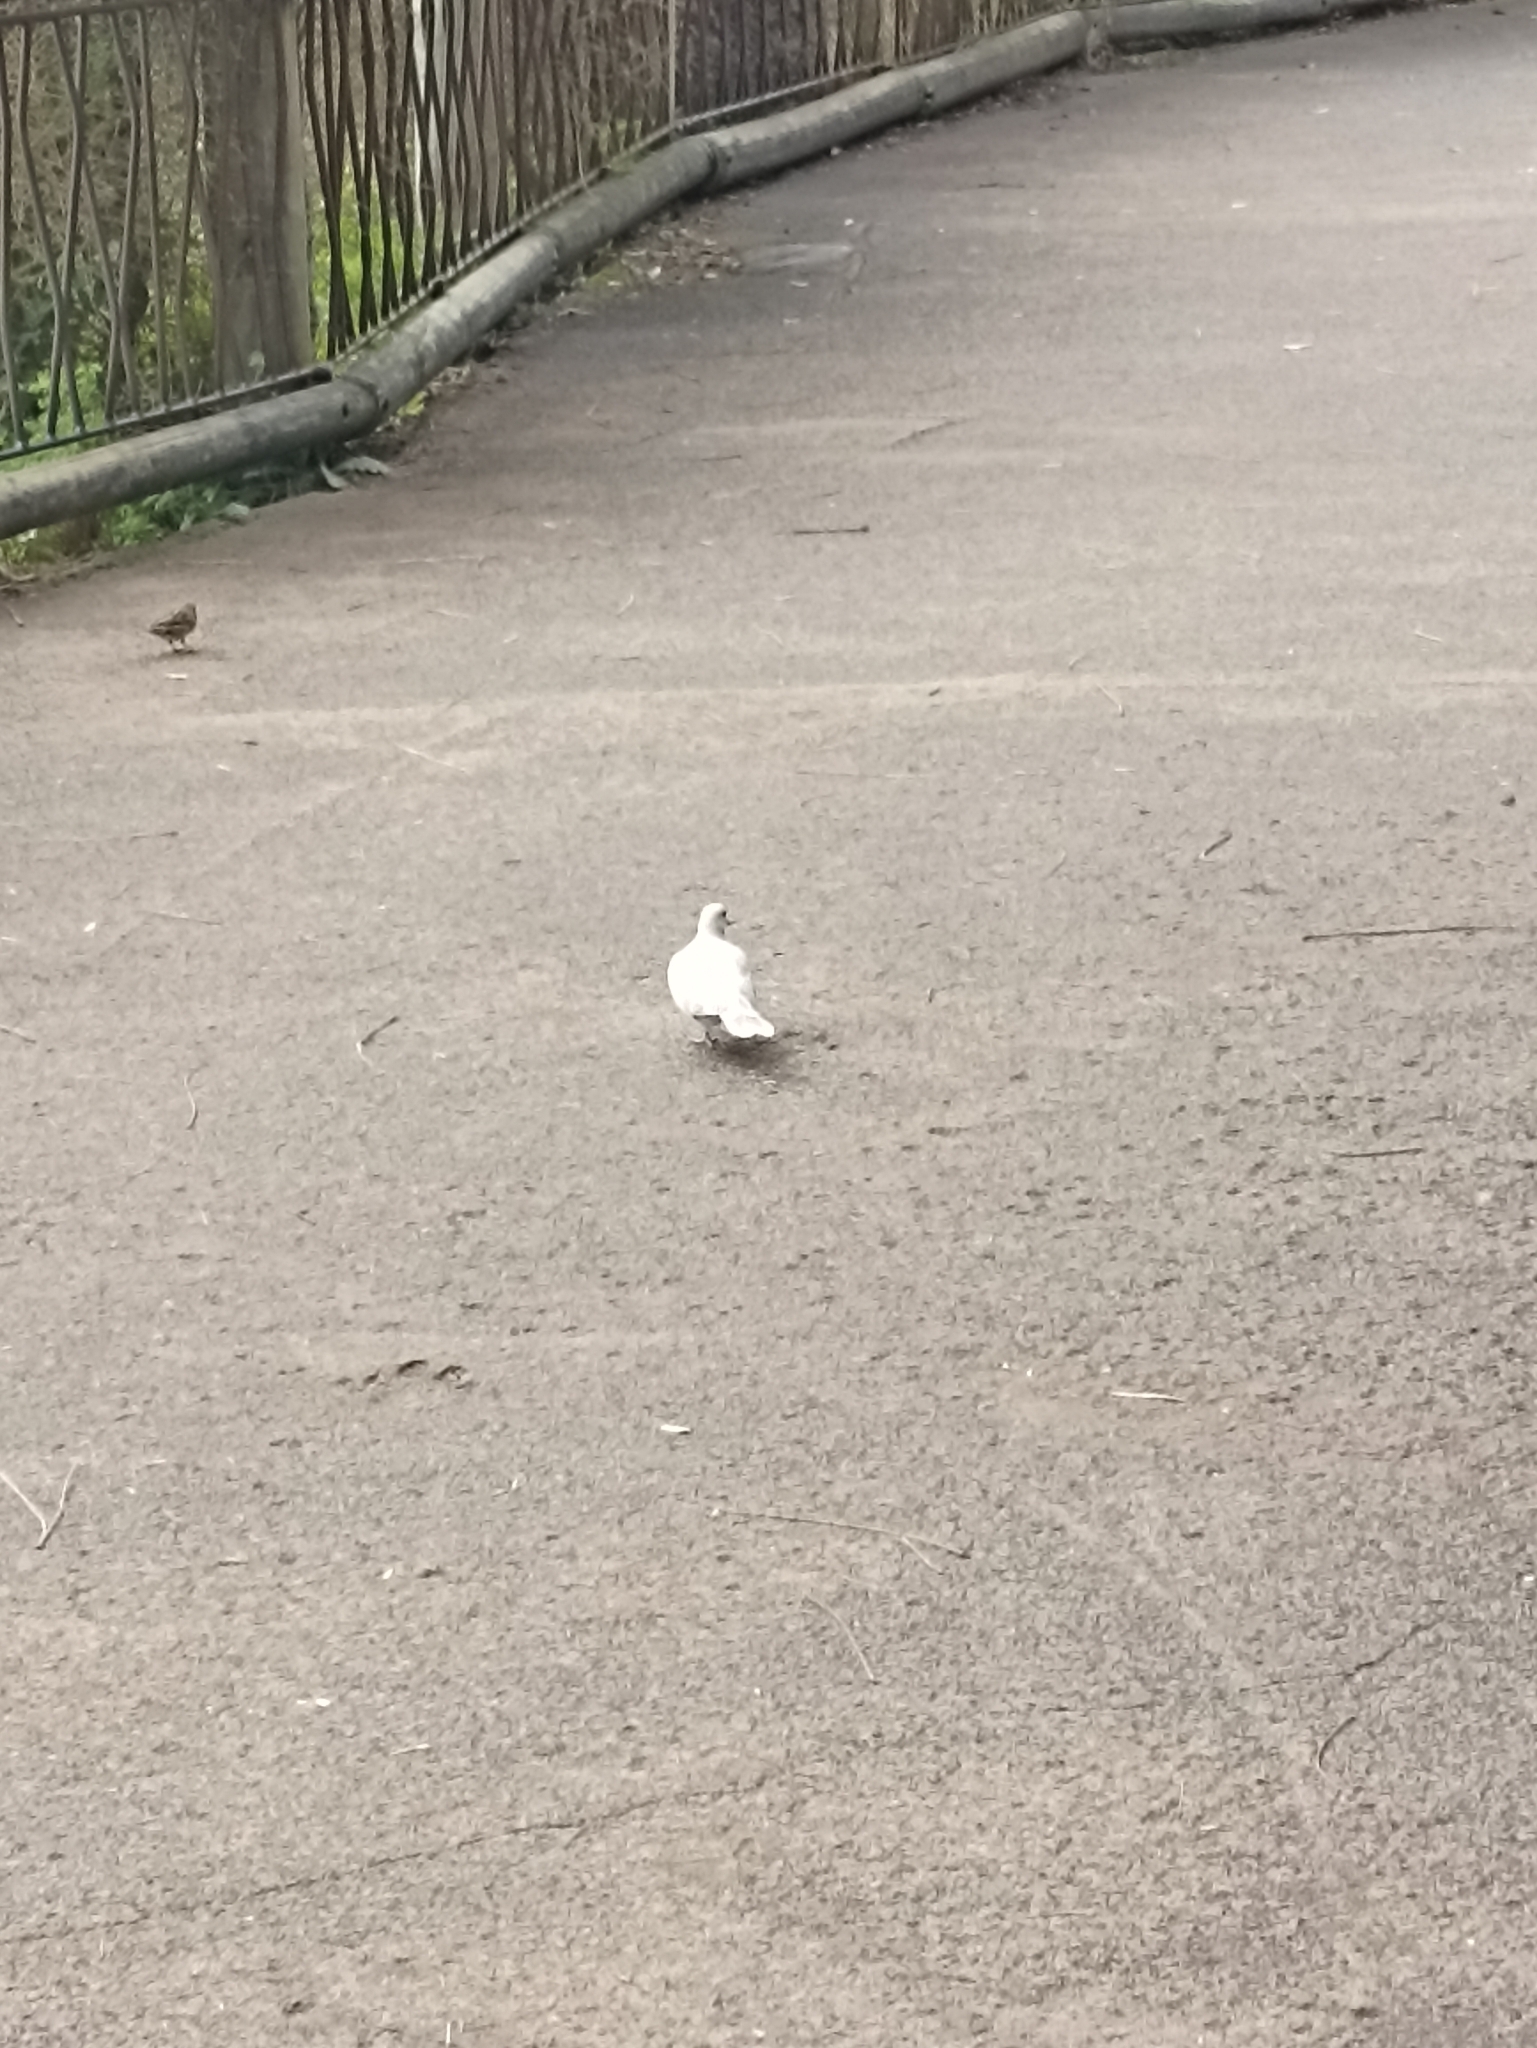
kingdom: Animalia
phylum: Chordata
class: Aves
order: Columbiformes
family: Columbidae
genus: Streptopelia
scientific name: Streptopelia roseogrisea
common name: African collared dove
